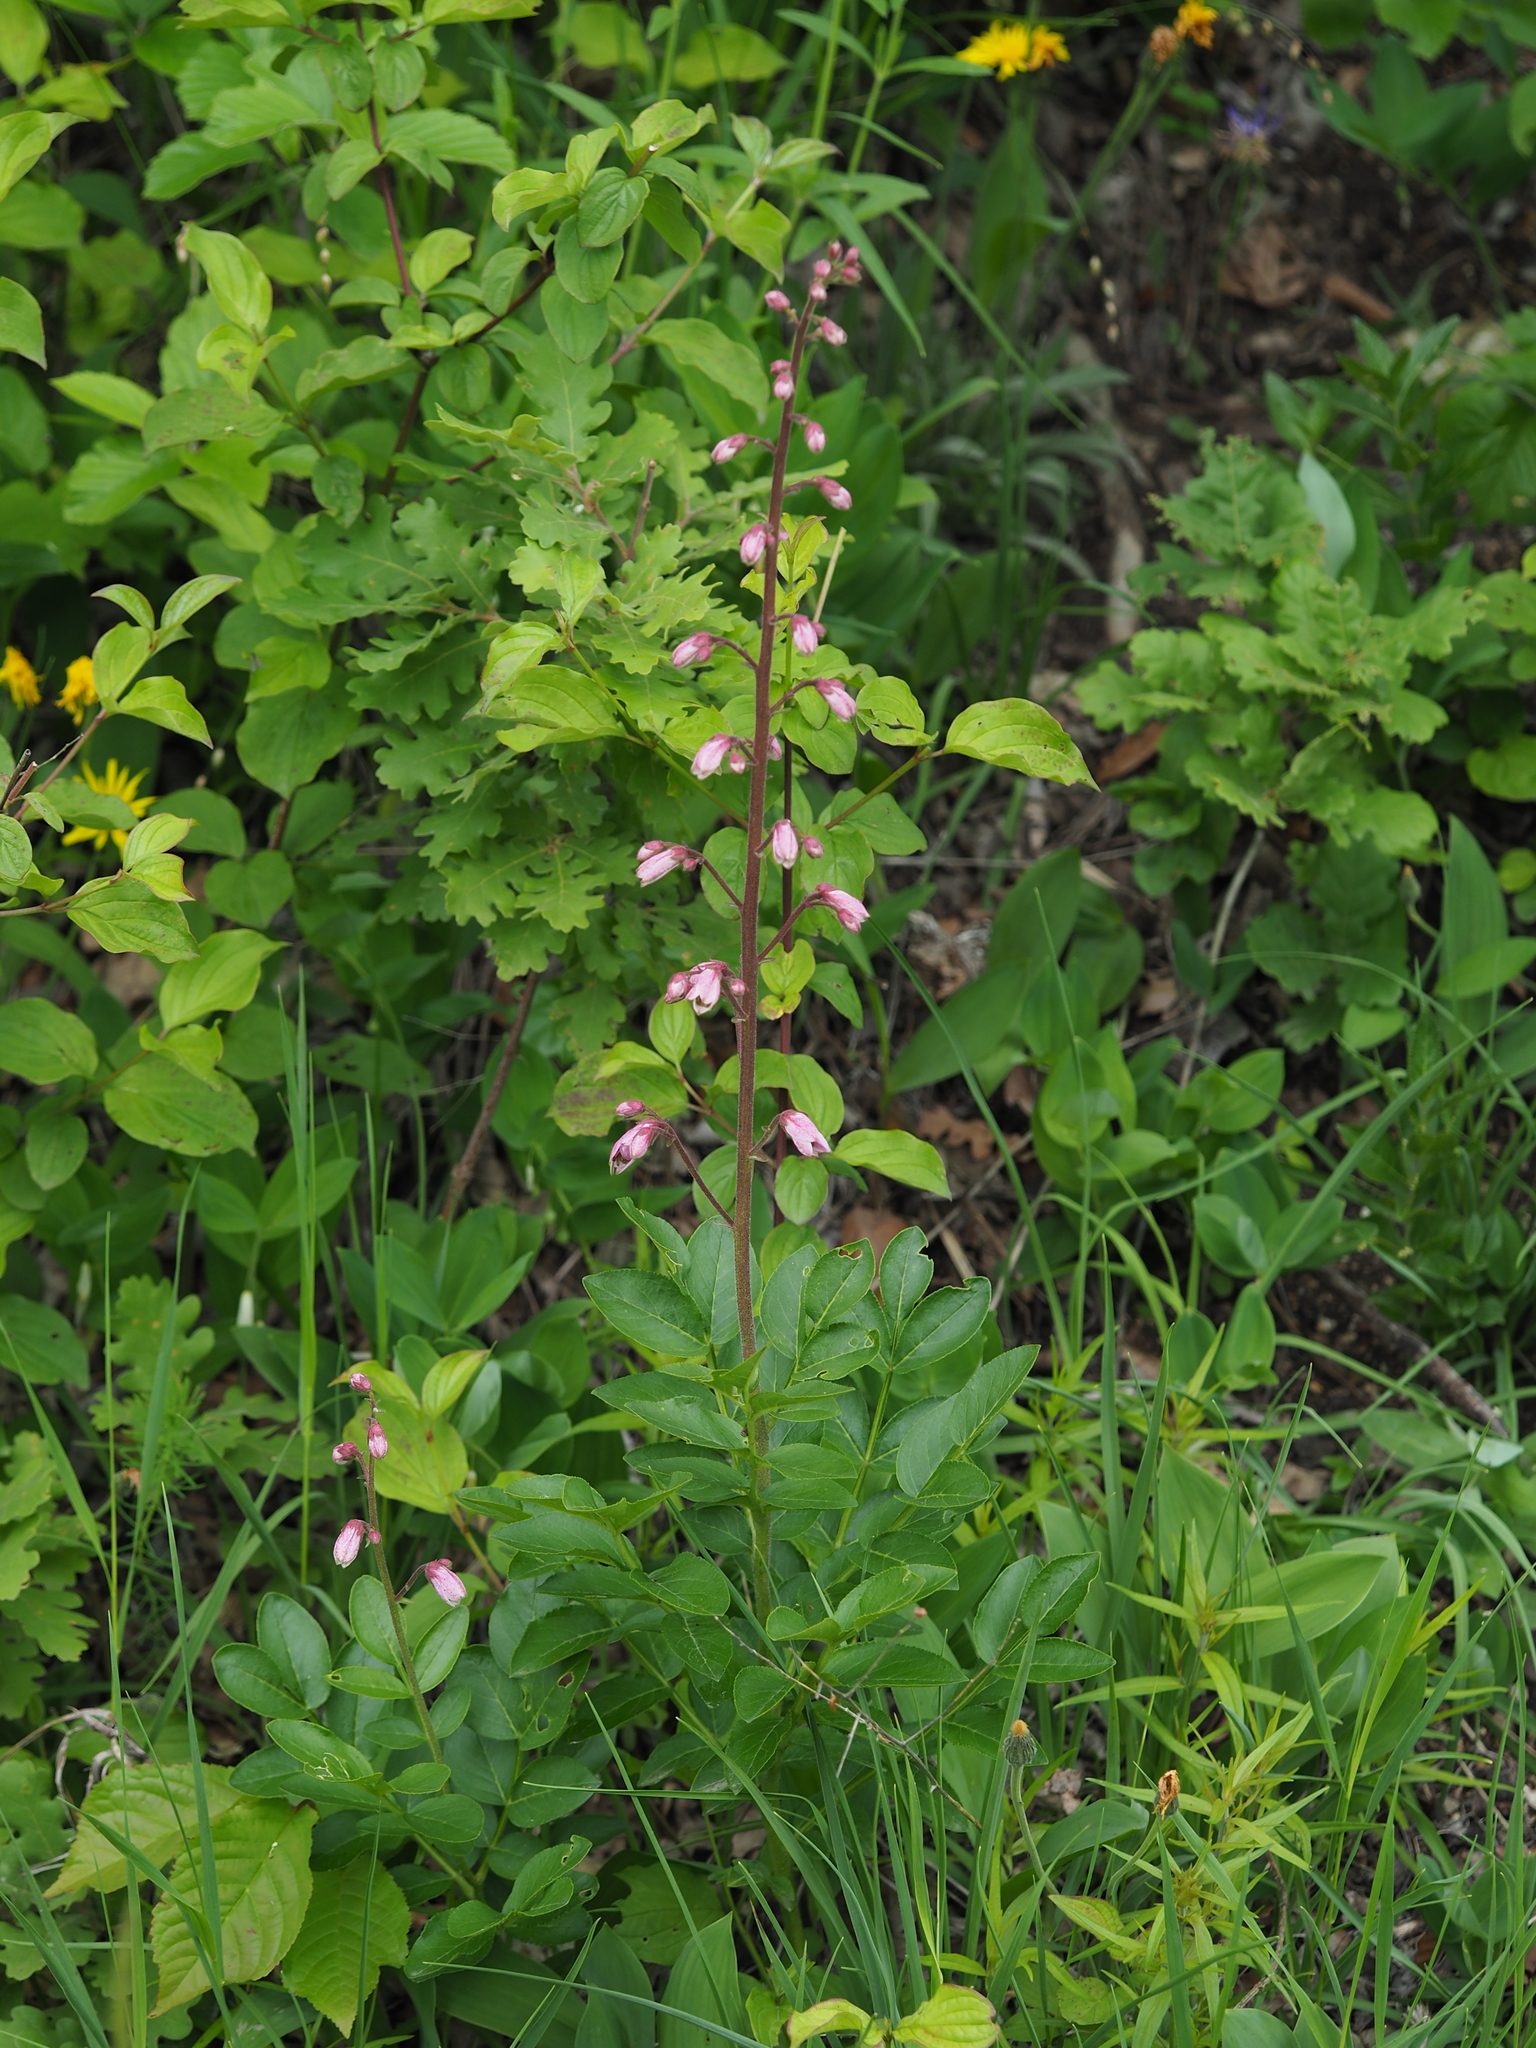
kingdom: Plantae
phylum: Tracheophyta
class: Magnoliopsida
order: Sapindales
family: Rutaceae
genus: Dictamnus
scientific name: Dictamnus albus
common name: Gasplant
